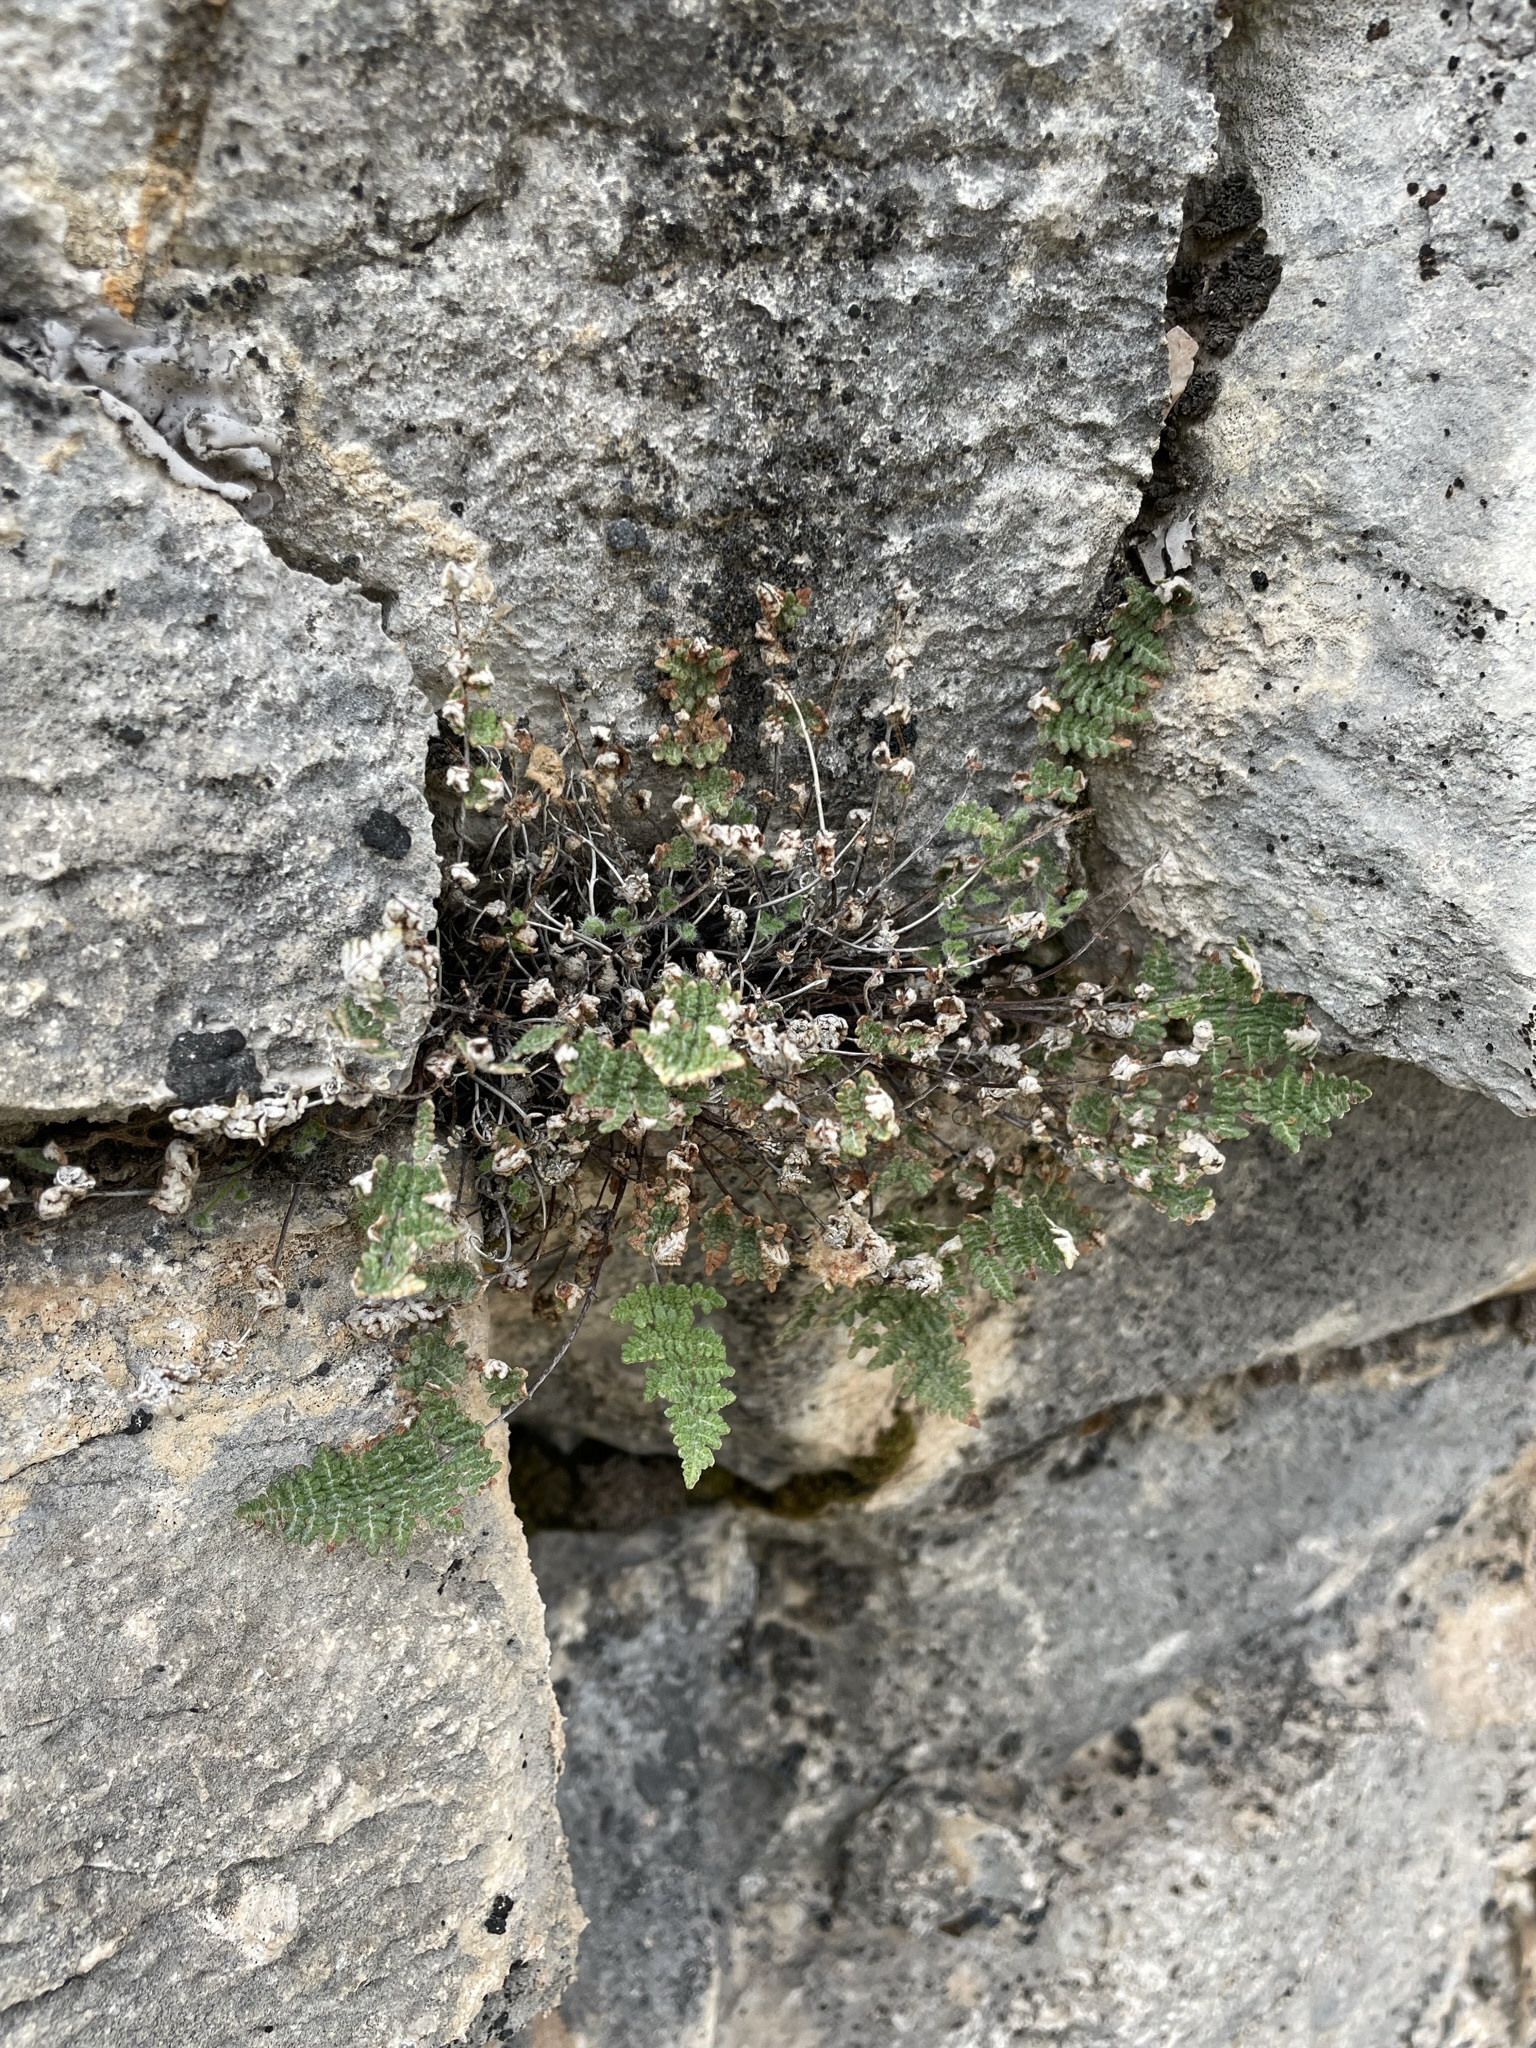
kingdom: Plantae
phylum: Tracheophyta
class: Polypodiopsida
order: Polypodiales
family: Pteridaceae
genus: Myriopteris
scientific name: Myriopteris gracilis
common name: Fee's lip fern
